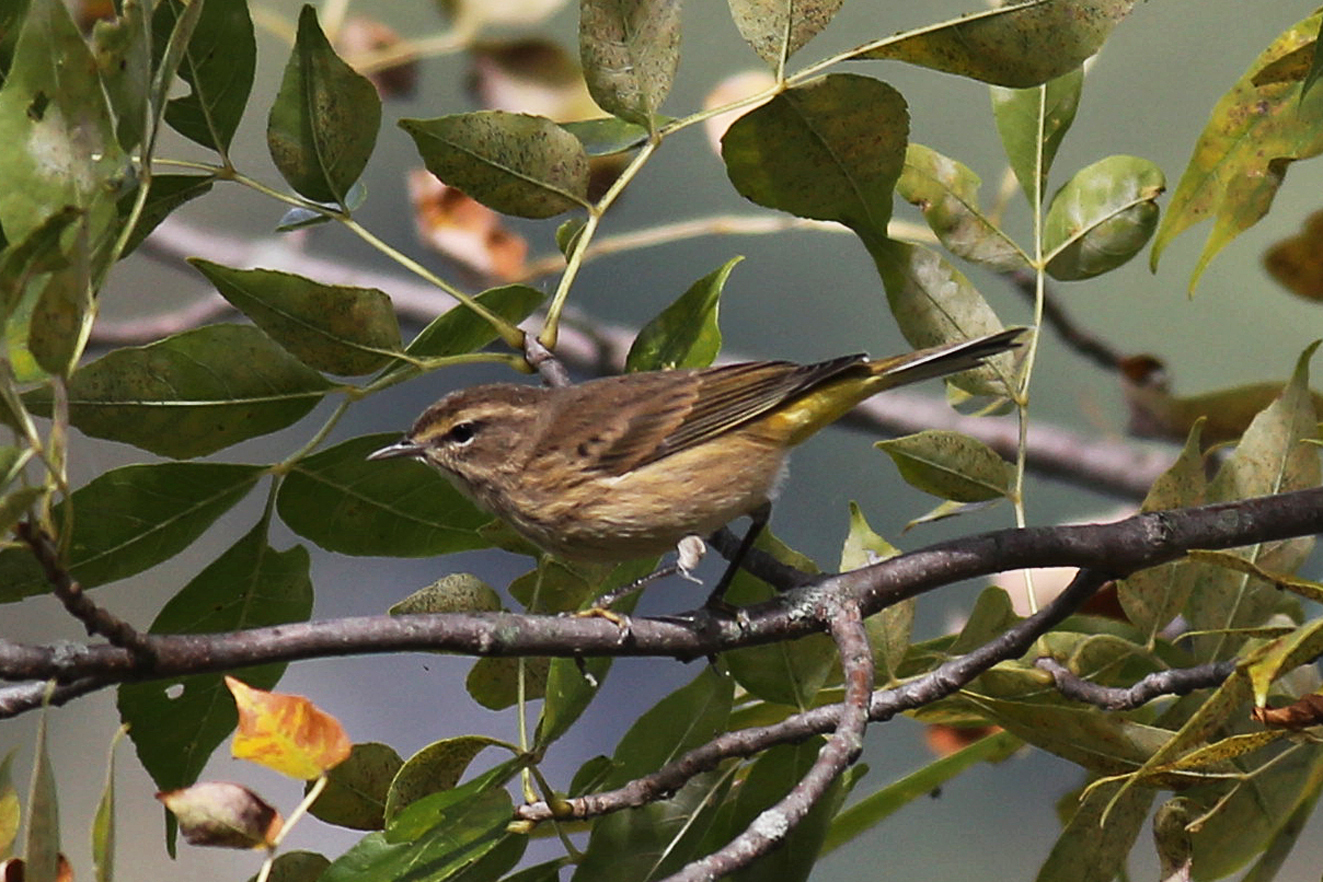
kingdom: Animalia
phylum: Chordata
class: Aves
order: Passeriformes
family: Parulidae
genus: Setophaga
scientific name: Setophaga palmarum
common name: Palm warbler
